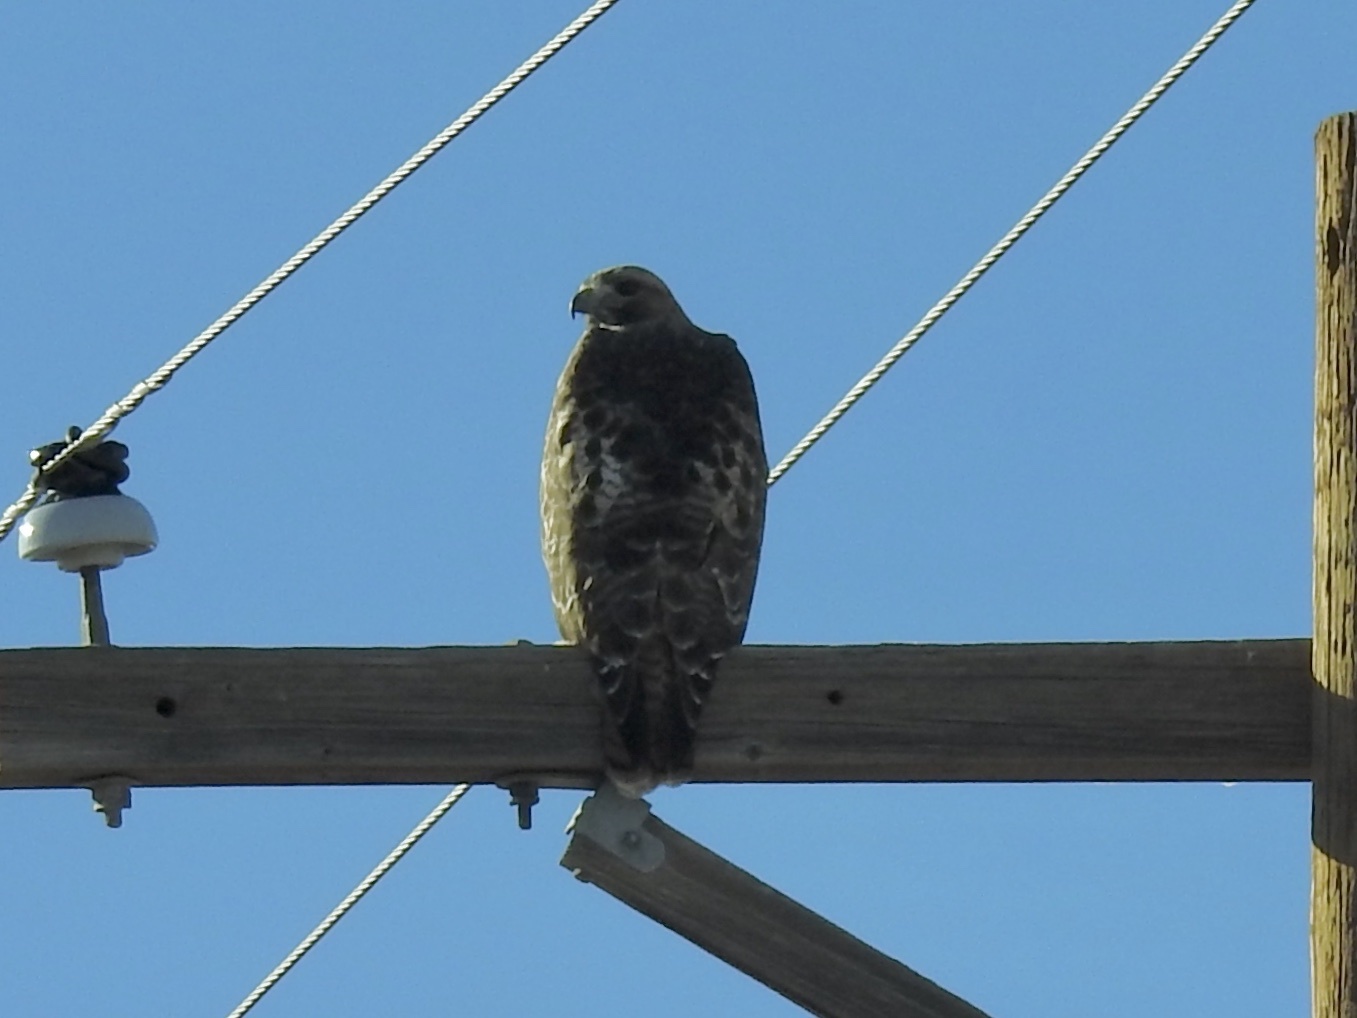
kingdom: Animalia
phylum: Chordata
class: Aves
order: Accipitriformes
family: Accipitridae
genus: Buteo
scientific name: Buteo jamaicensis
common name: Red-tailed hawk
